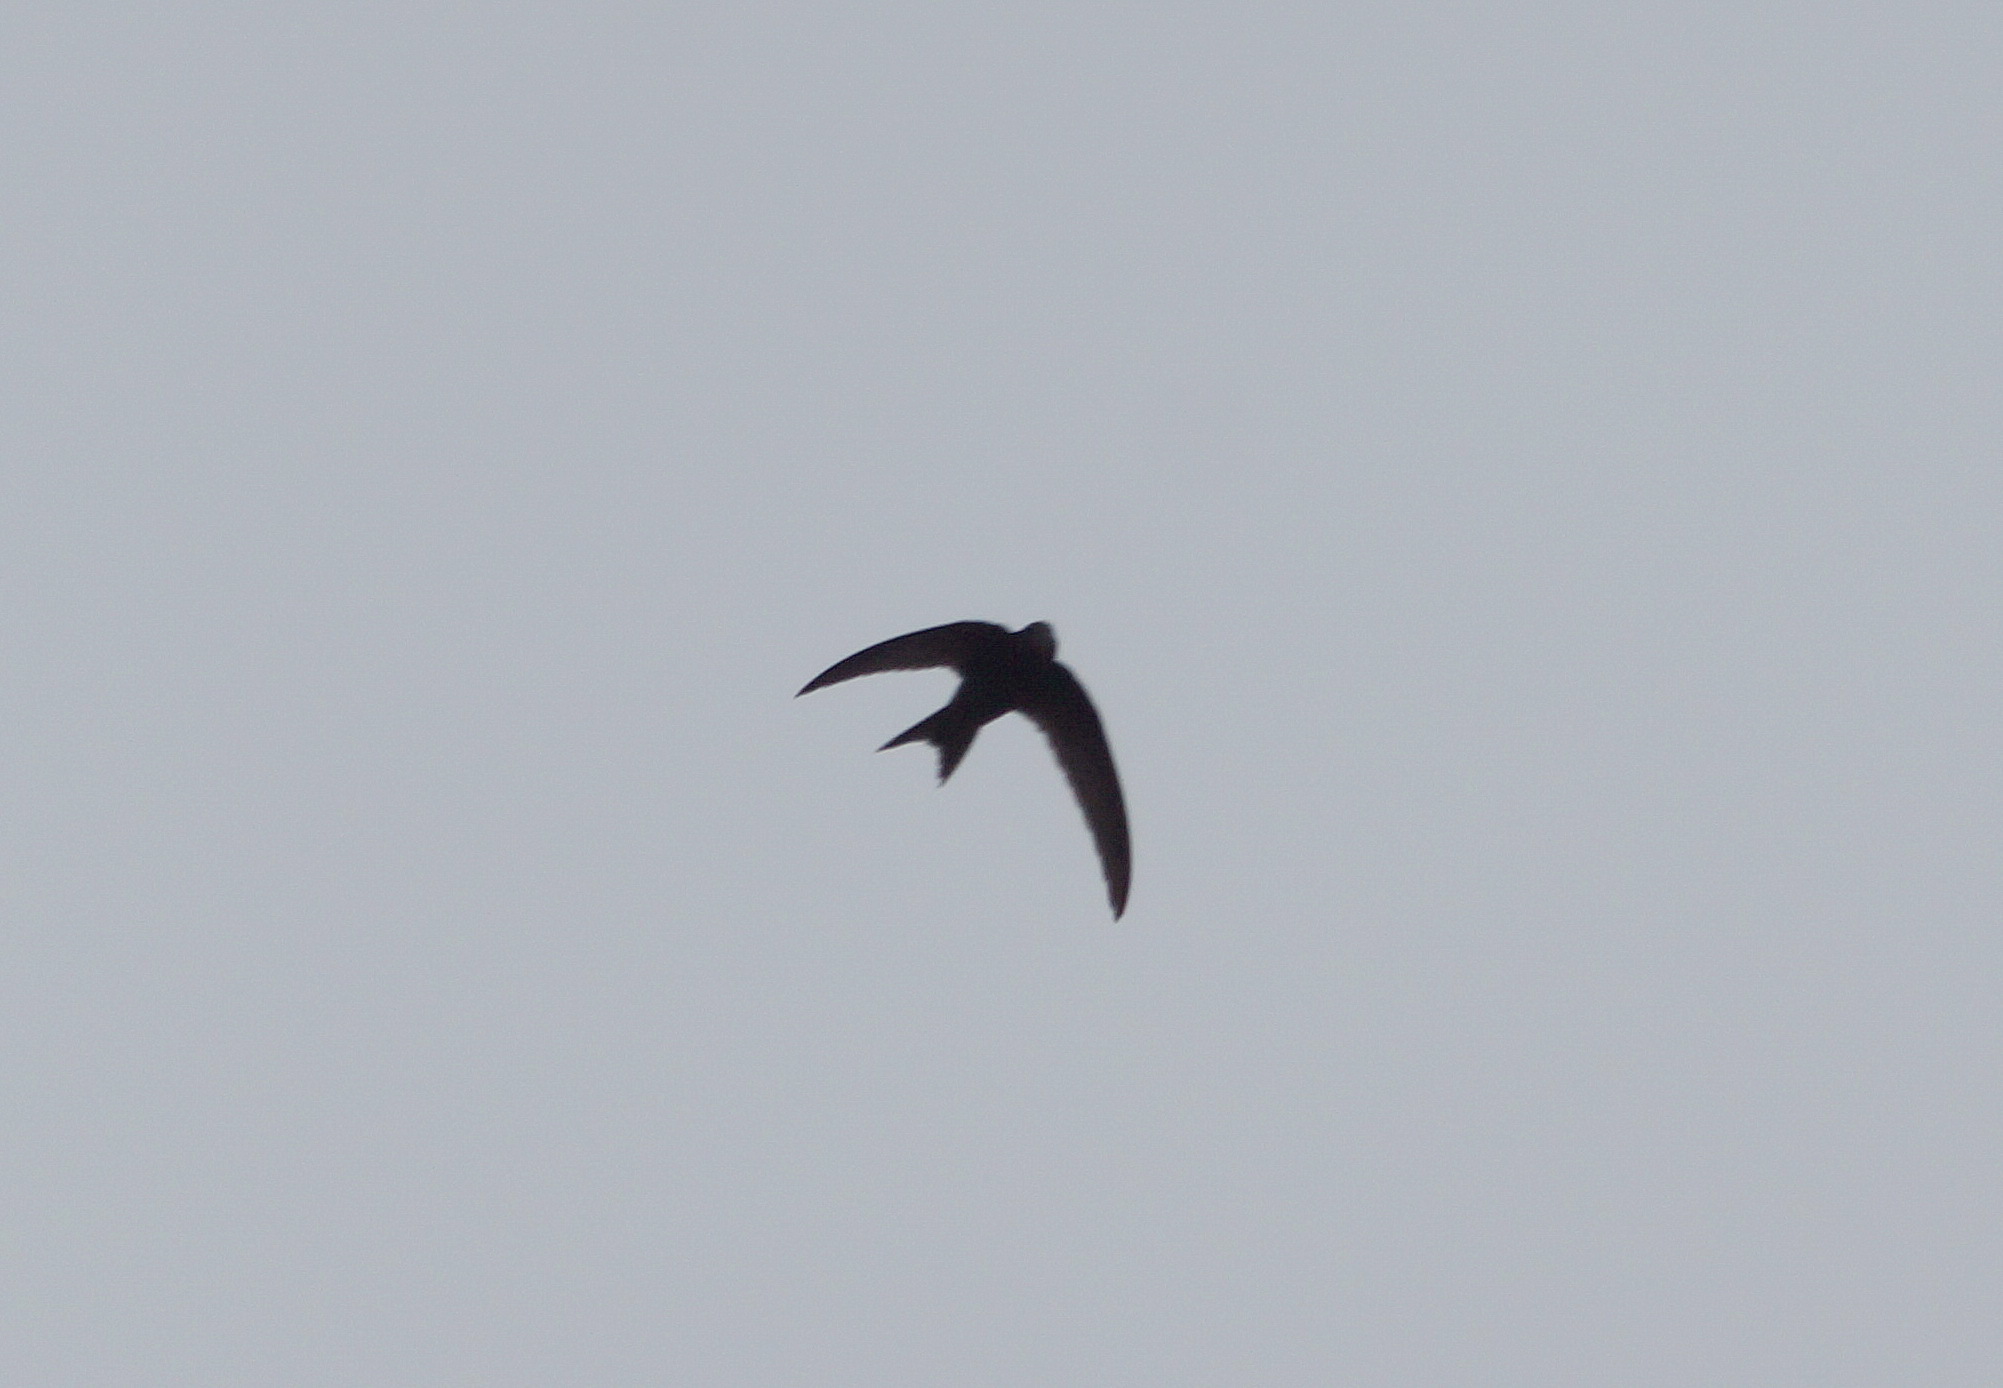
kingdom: Animalia
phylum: Chordata
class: Aves
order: Apodiformes
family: Apodidae
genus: Apus
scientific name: Apus apus
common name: Common swift
